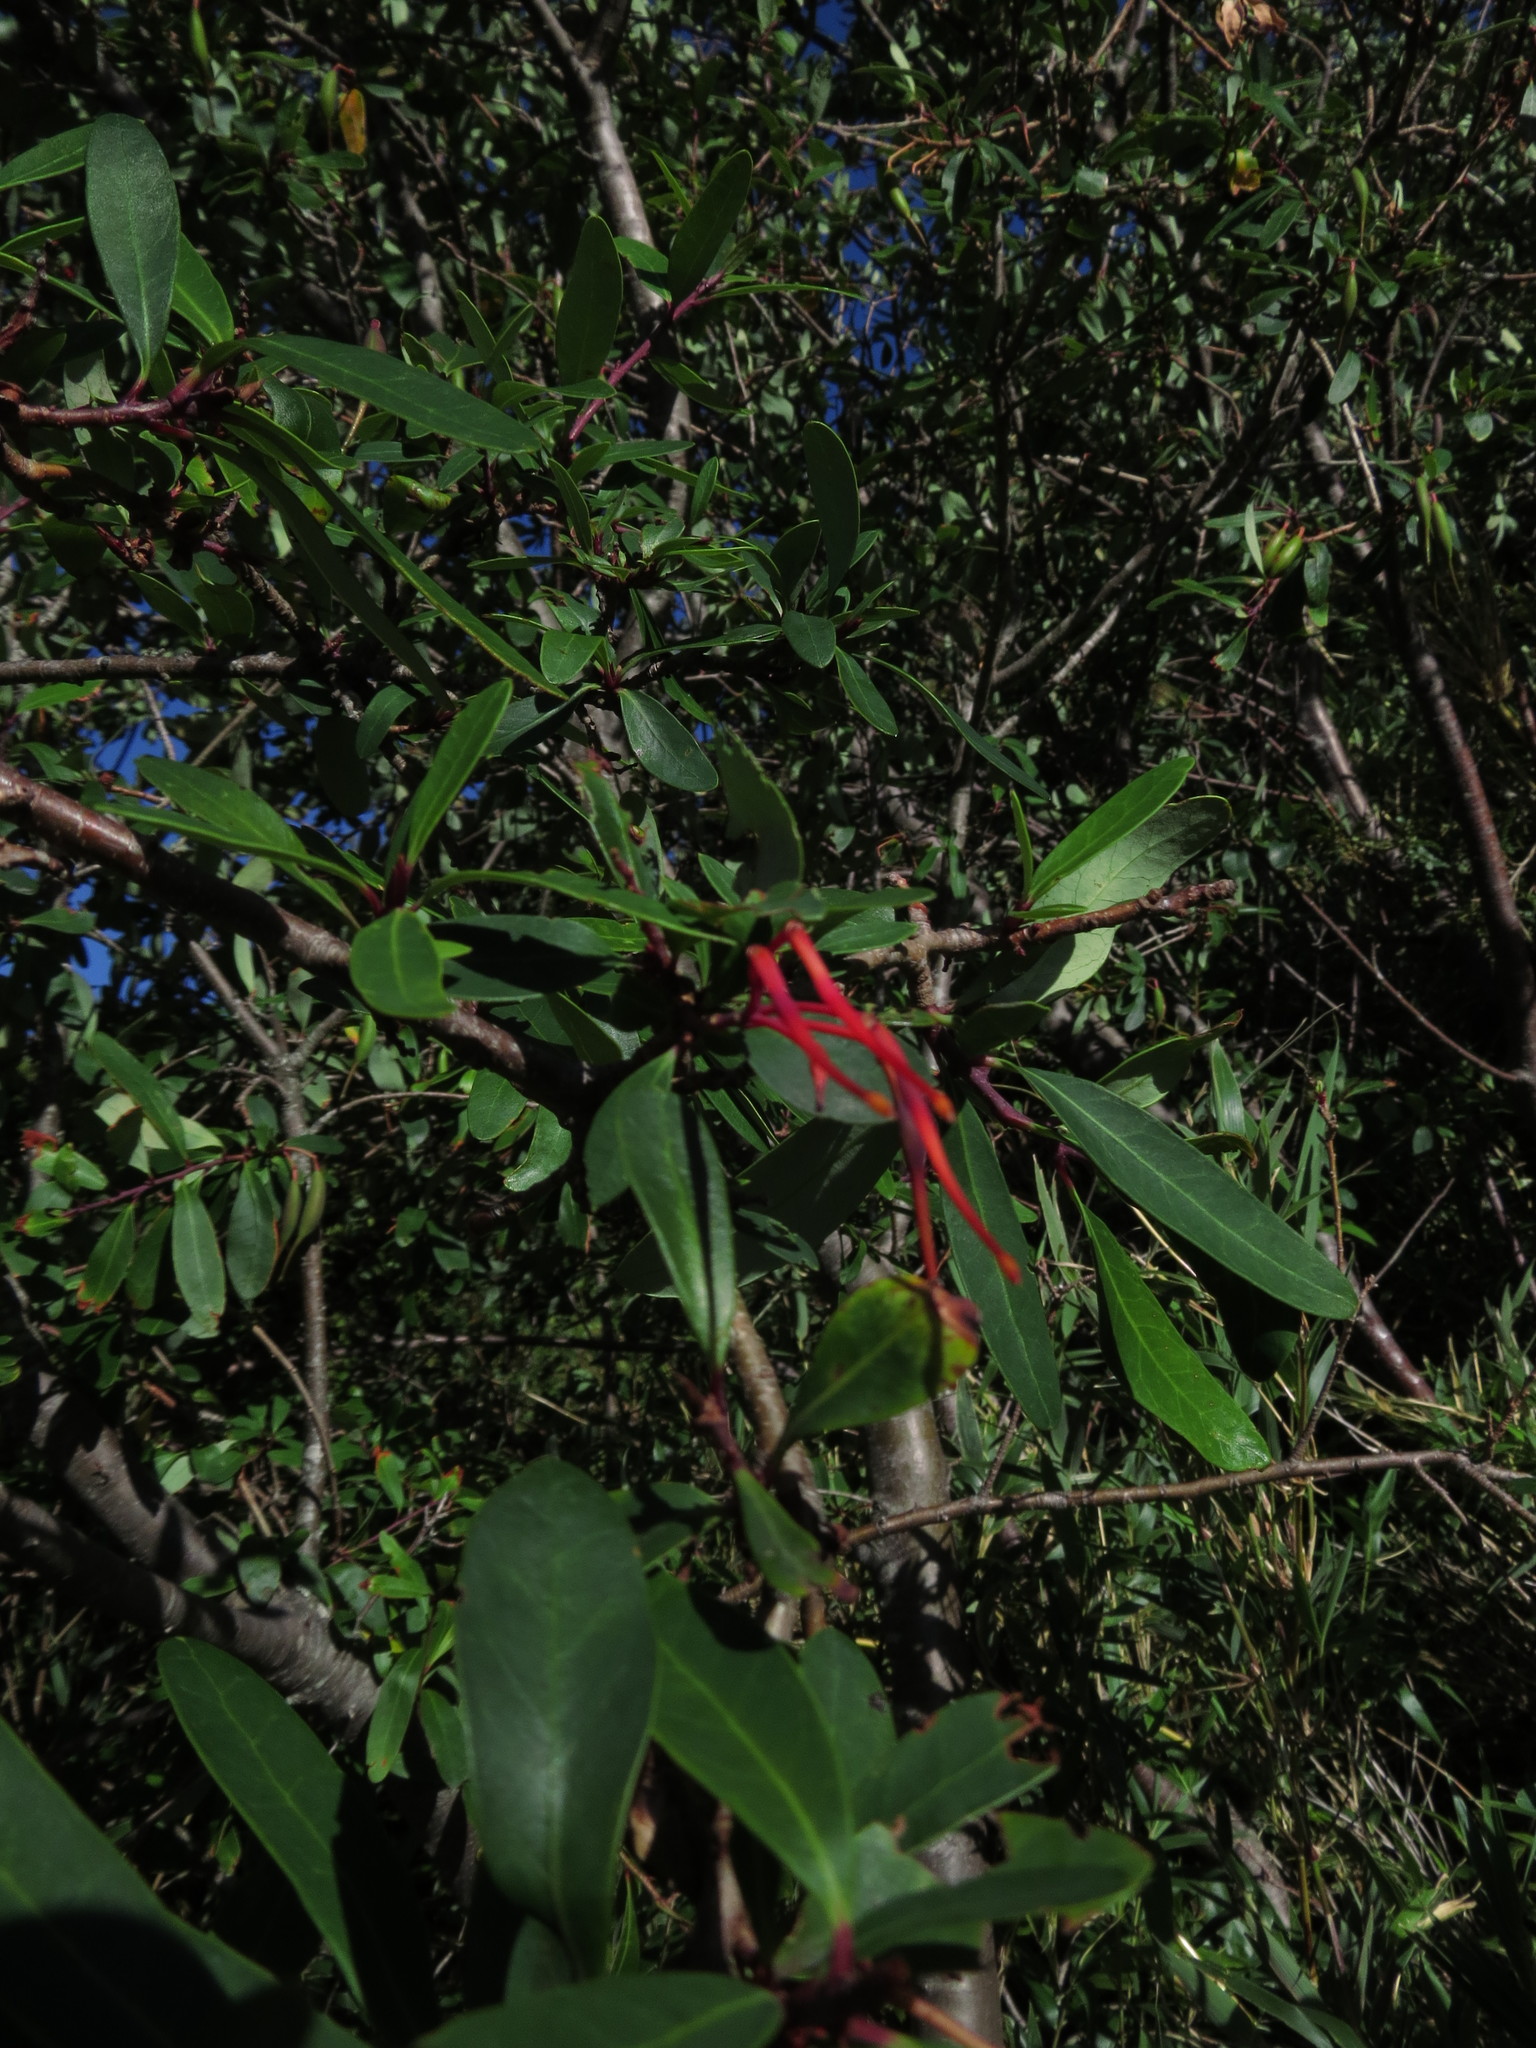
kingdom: Plantae
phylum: Tracheophyta
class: Magnoliopsida
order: Proteales
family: Proteaceae
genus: Embothrium
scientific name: Embothrium coccineum
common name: Chilean firebush
